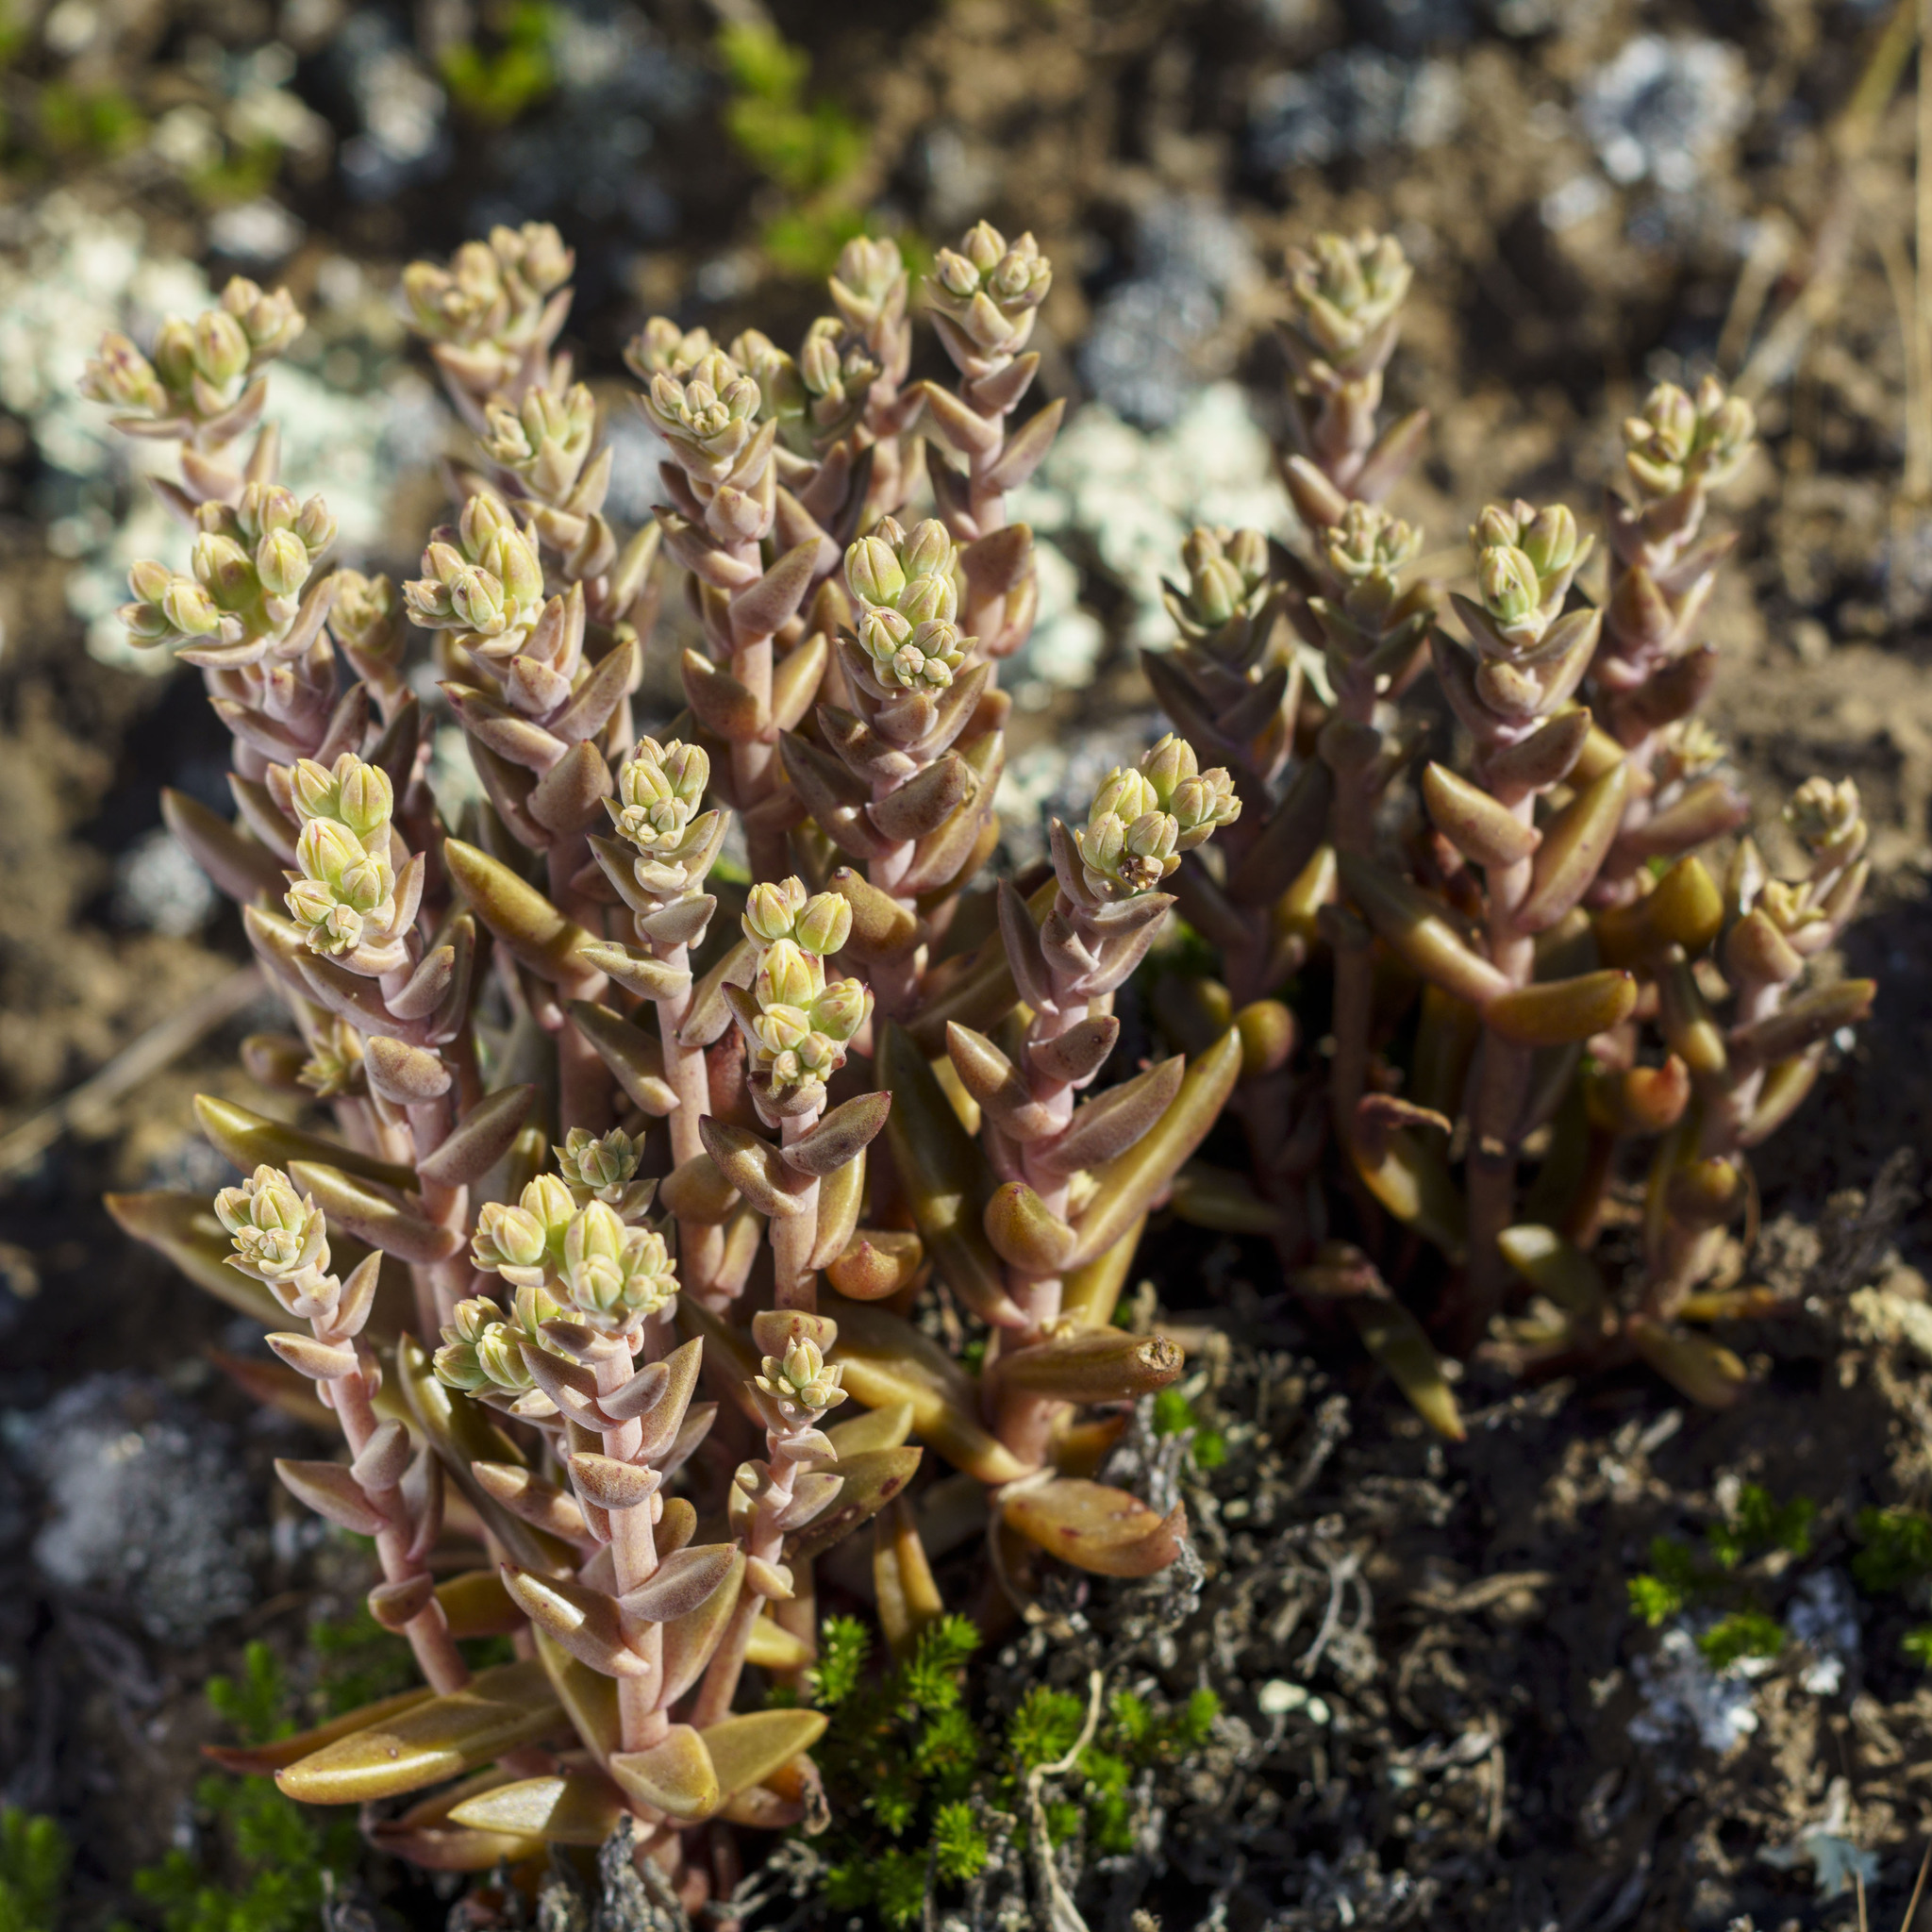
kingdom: Plantae
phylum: Tracheophyta
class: Magnoliopsida
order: Saxifragales
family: Crassulaceae
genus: Dudleya
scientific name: Dudleya parva
